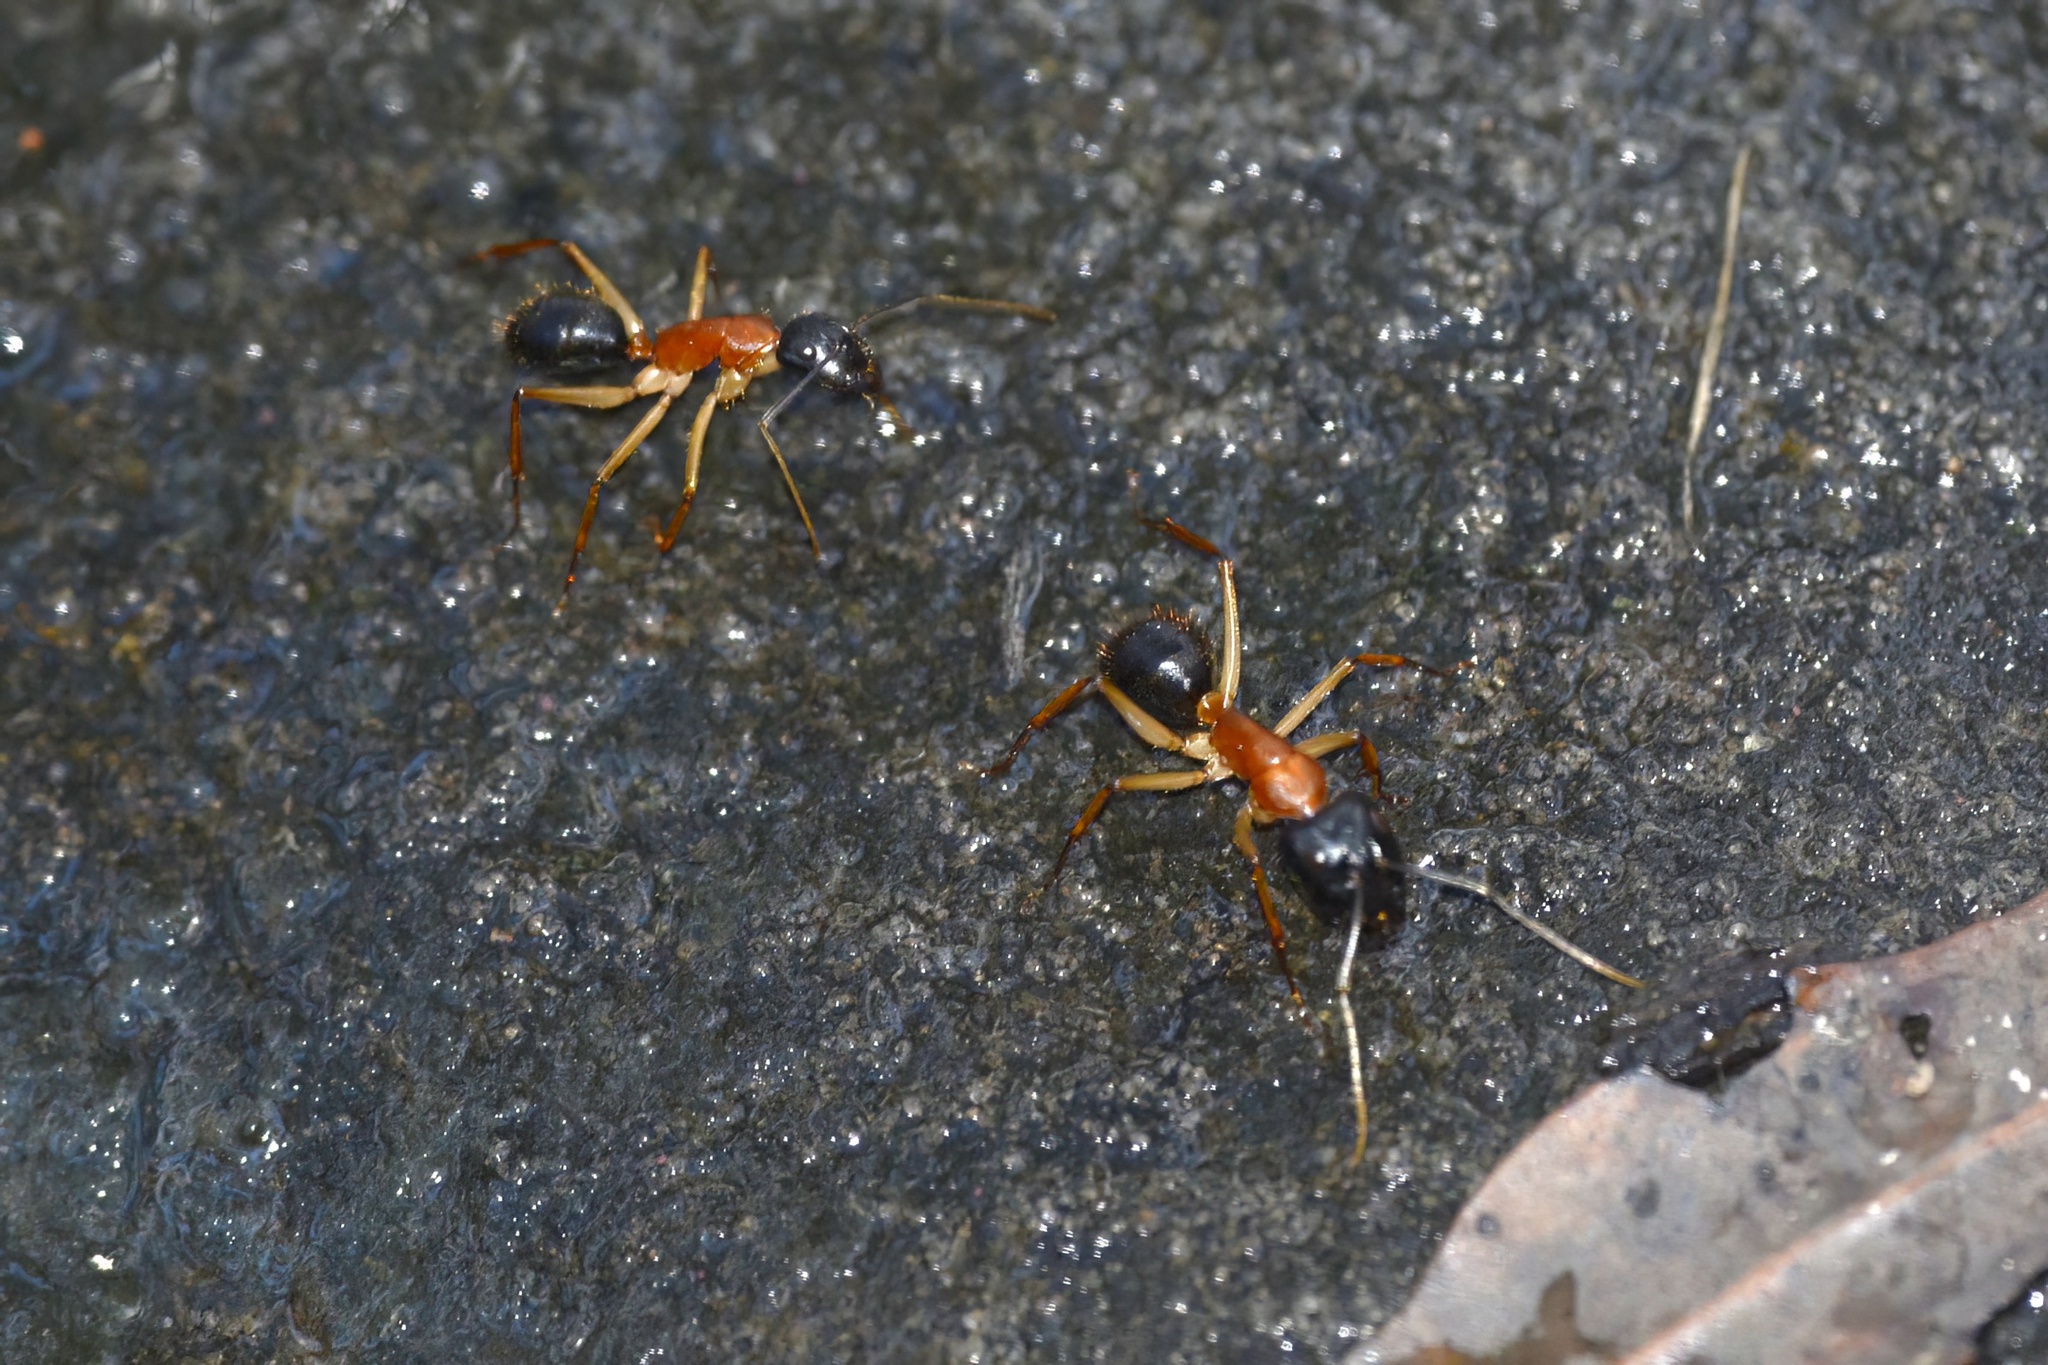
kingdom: Animalia
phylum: Arthropoda
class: Insecta
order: Hymenoptera
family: Formicidae
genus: Camponotus
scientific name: Camponotus nigriceps
